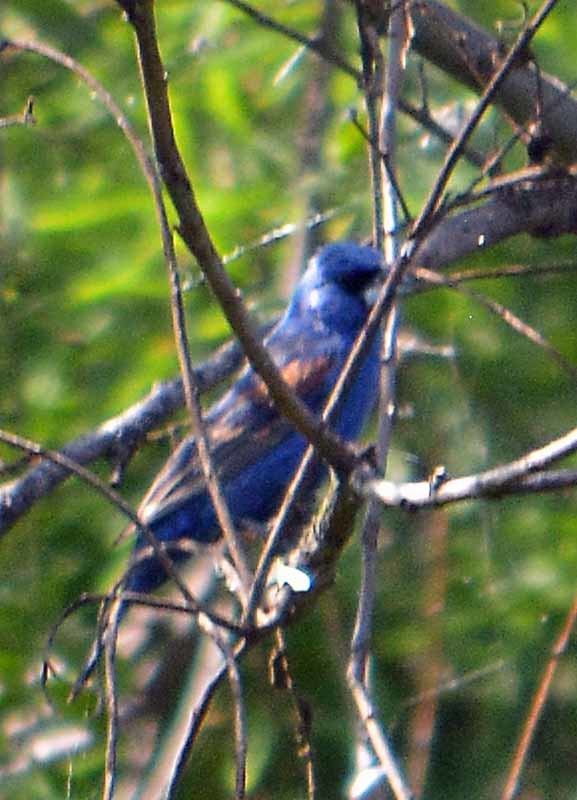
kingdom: Animalia
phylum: Chordata
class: Aves
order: Passeriformes
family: Cardinalidae
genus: Passerina
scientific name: Passerina caerulea
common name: Blue grosbeak
